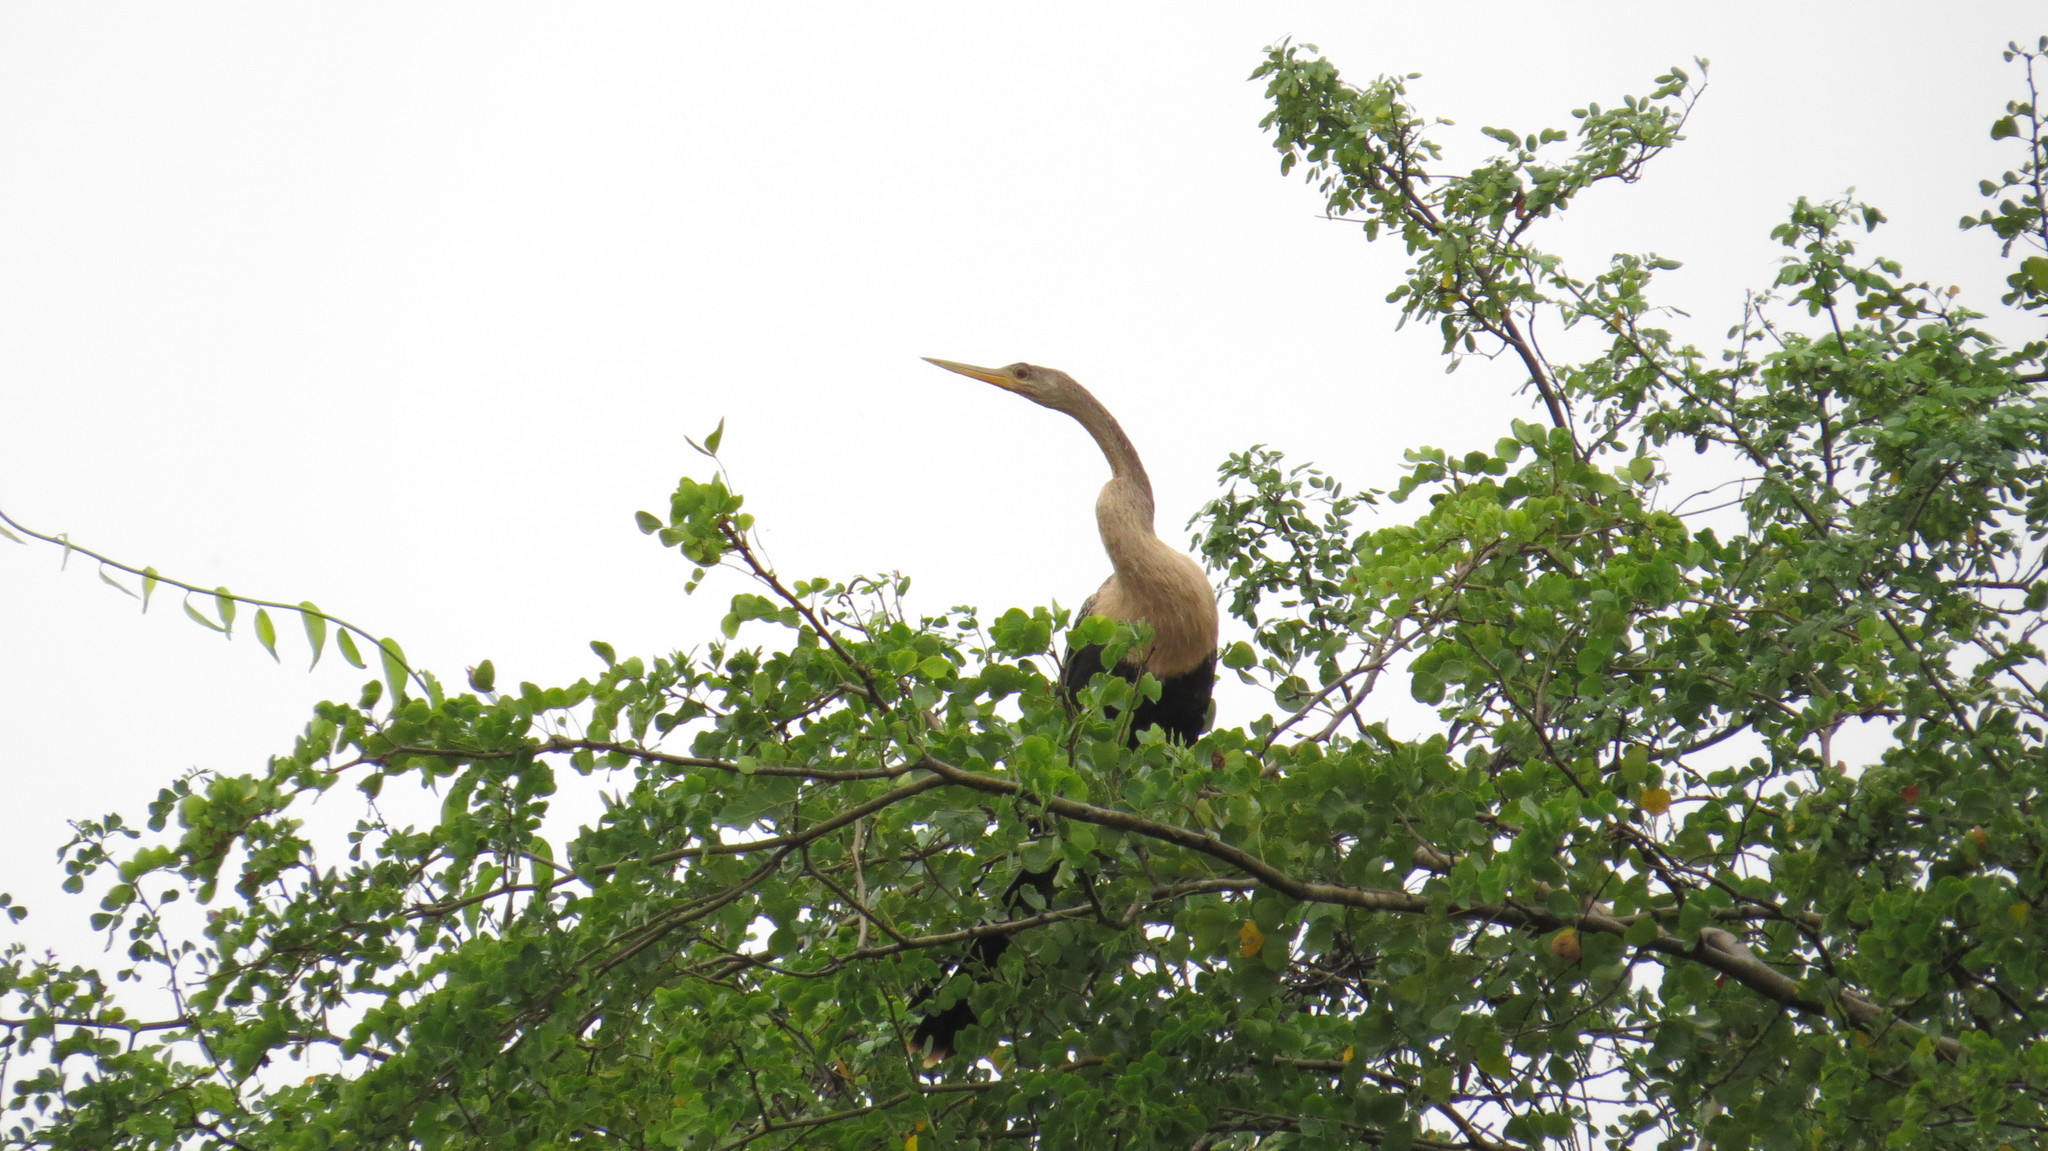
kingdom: Animalia
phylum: Chordata
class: Aves
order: Suliformes
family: Anhingidae
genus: Anhinga
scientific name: Anhinga anhinga
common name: Anhinga
